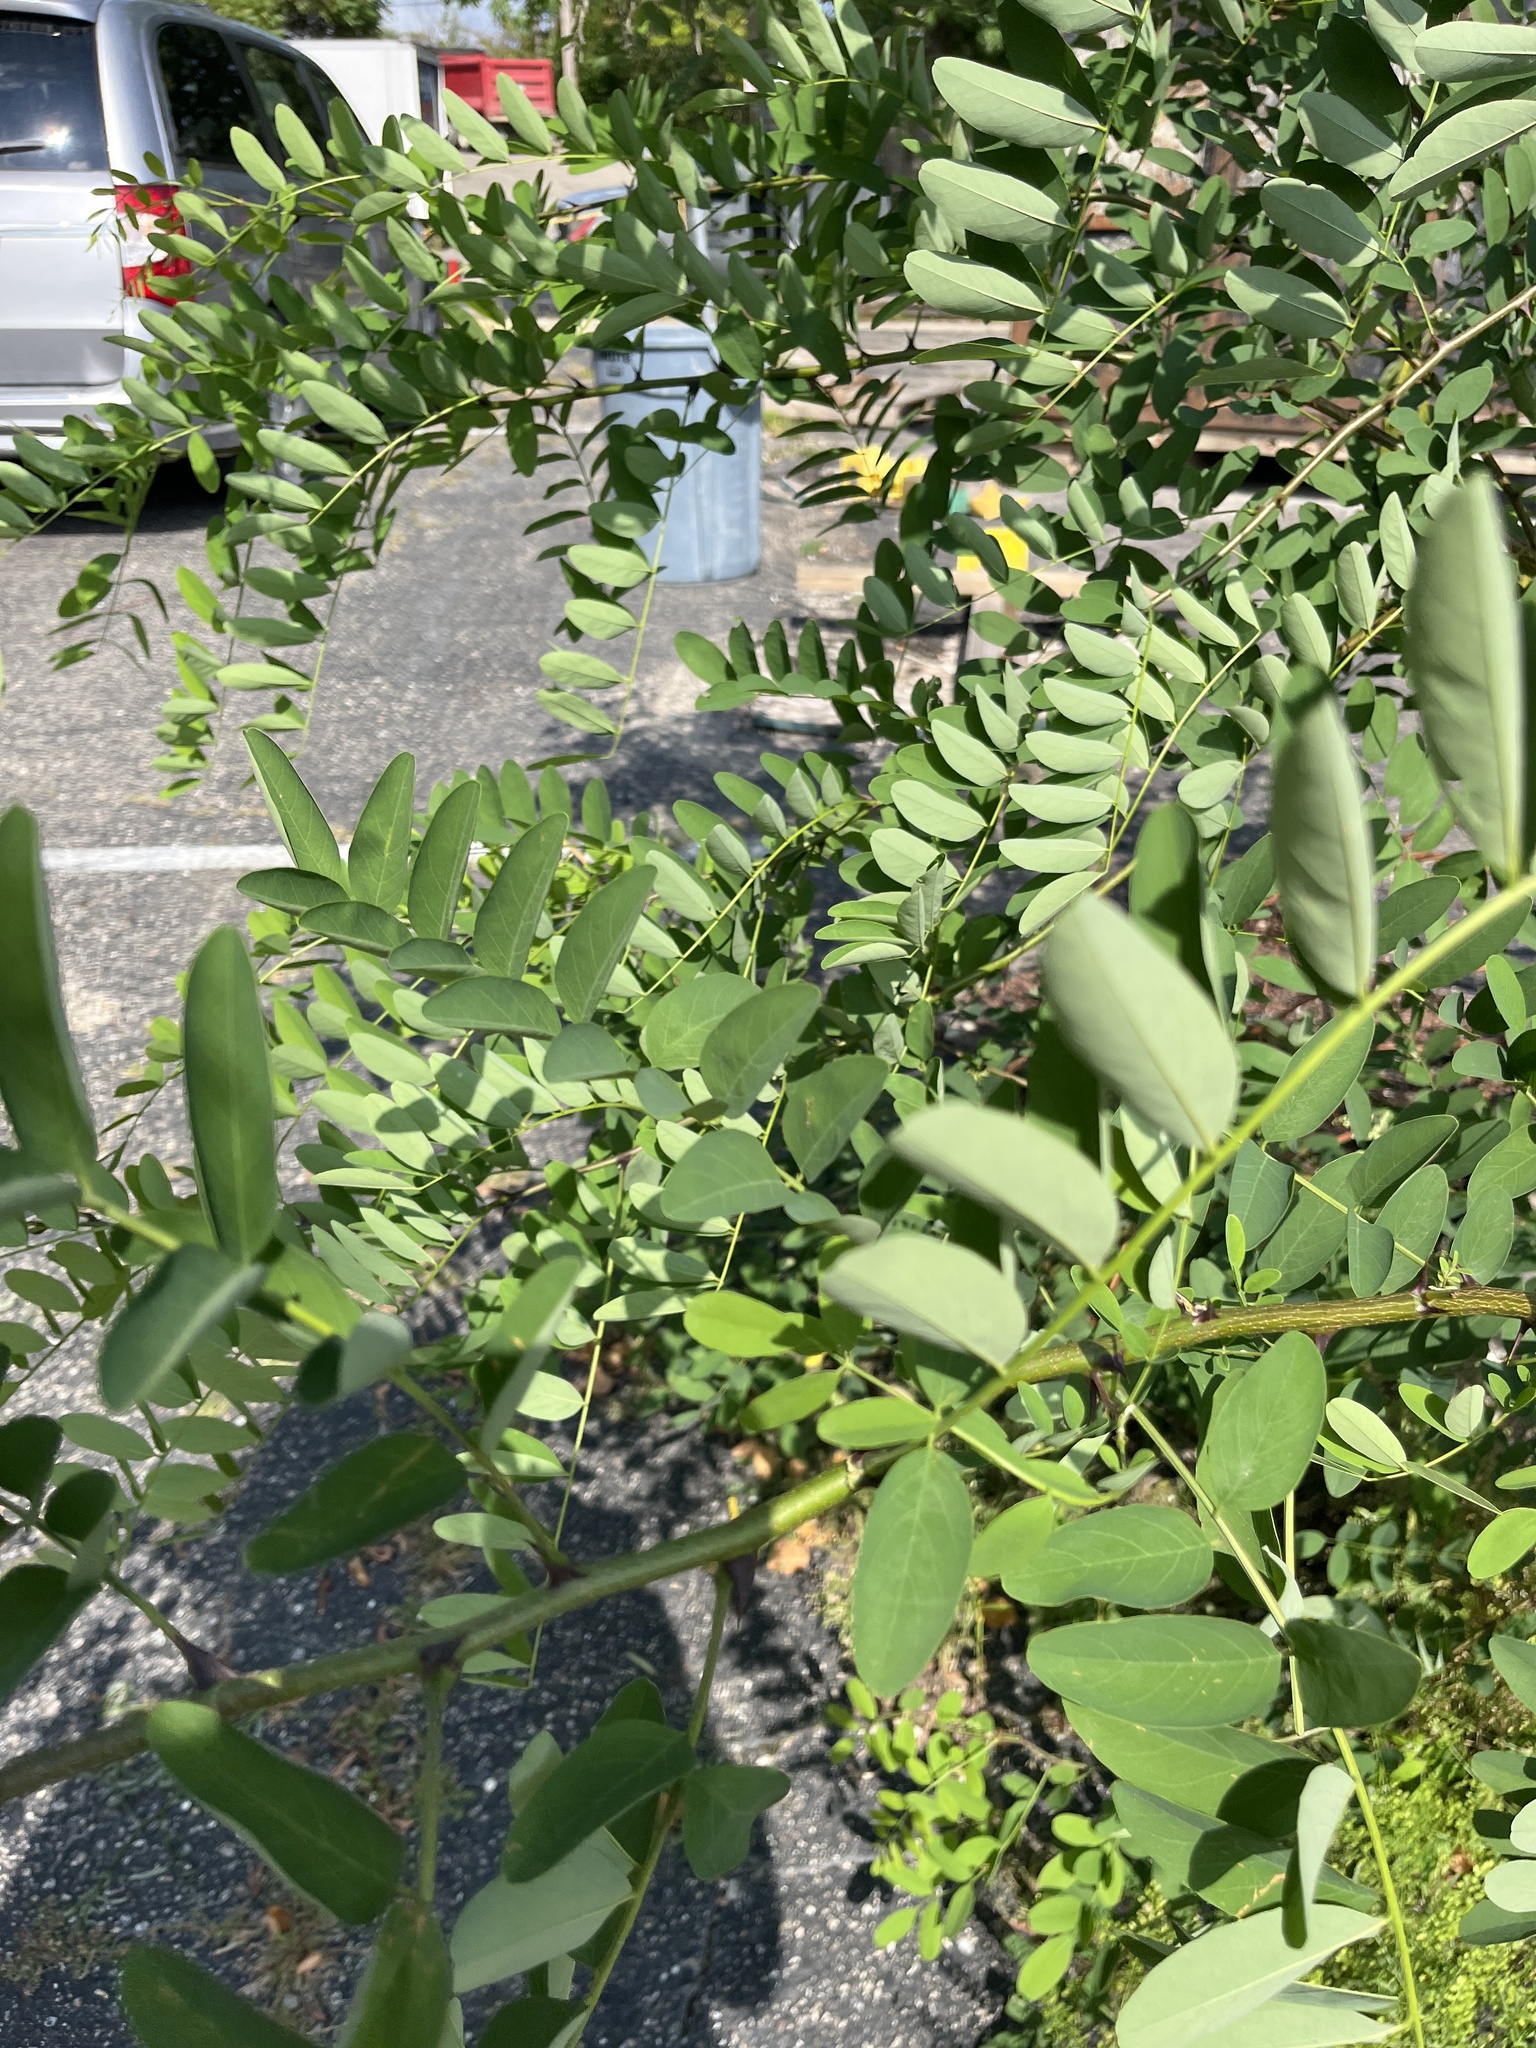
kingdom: Plantae
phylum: Tracheophyta
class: Magnoliopsida
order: Fabales
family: Fabaceae
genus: Robinia
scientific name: Robinia pseudoacacia
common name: Black locust
